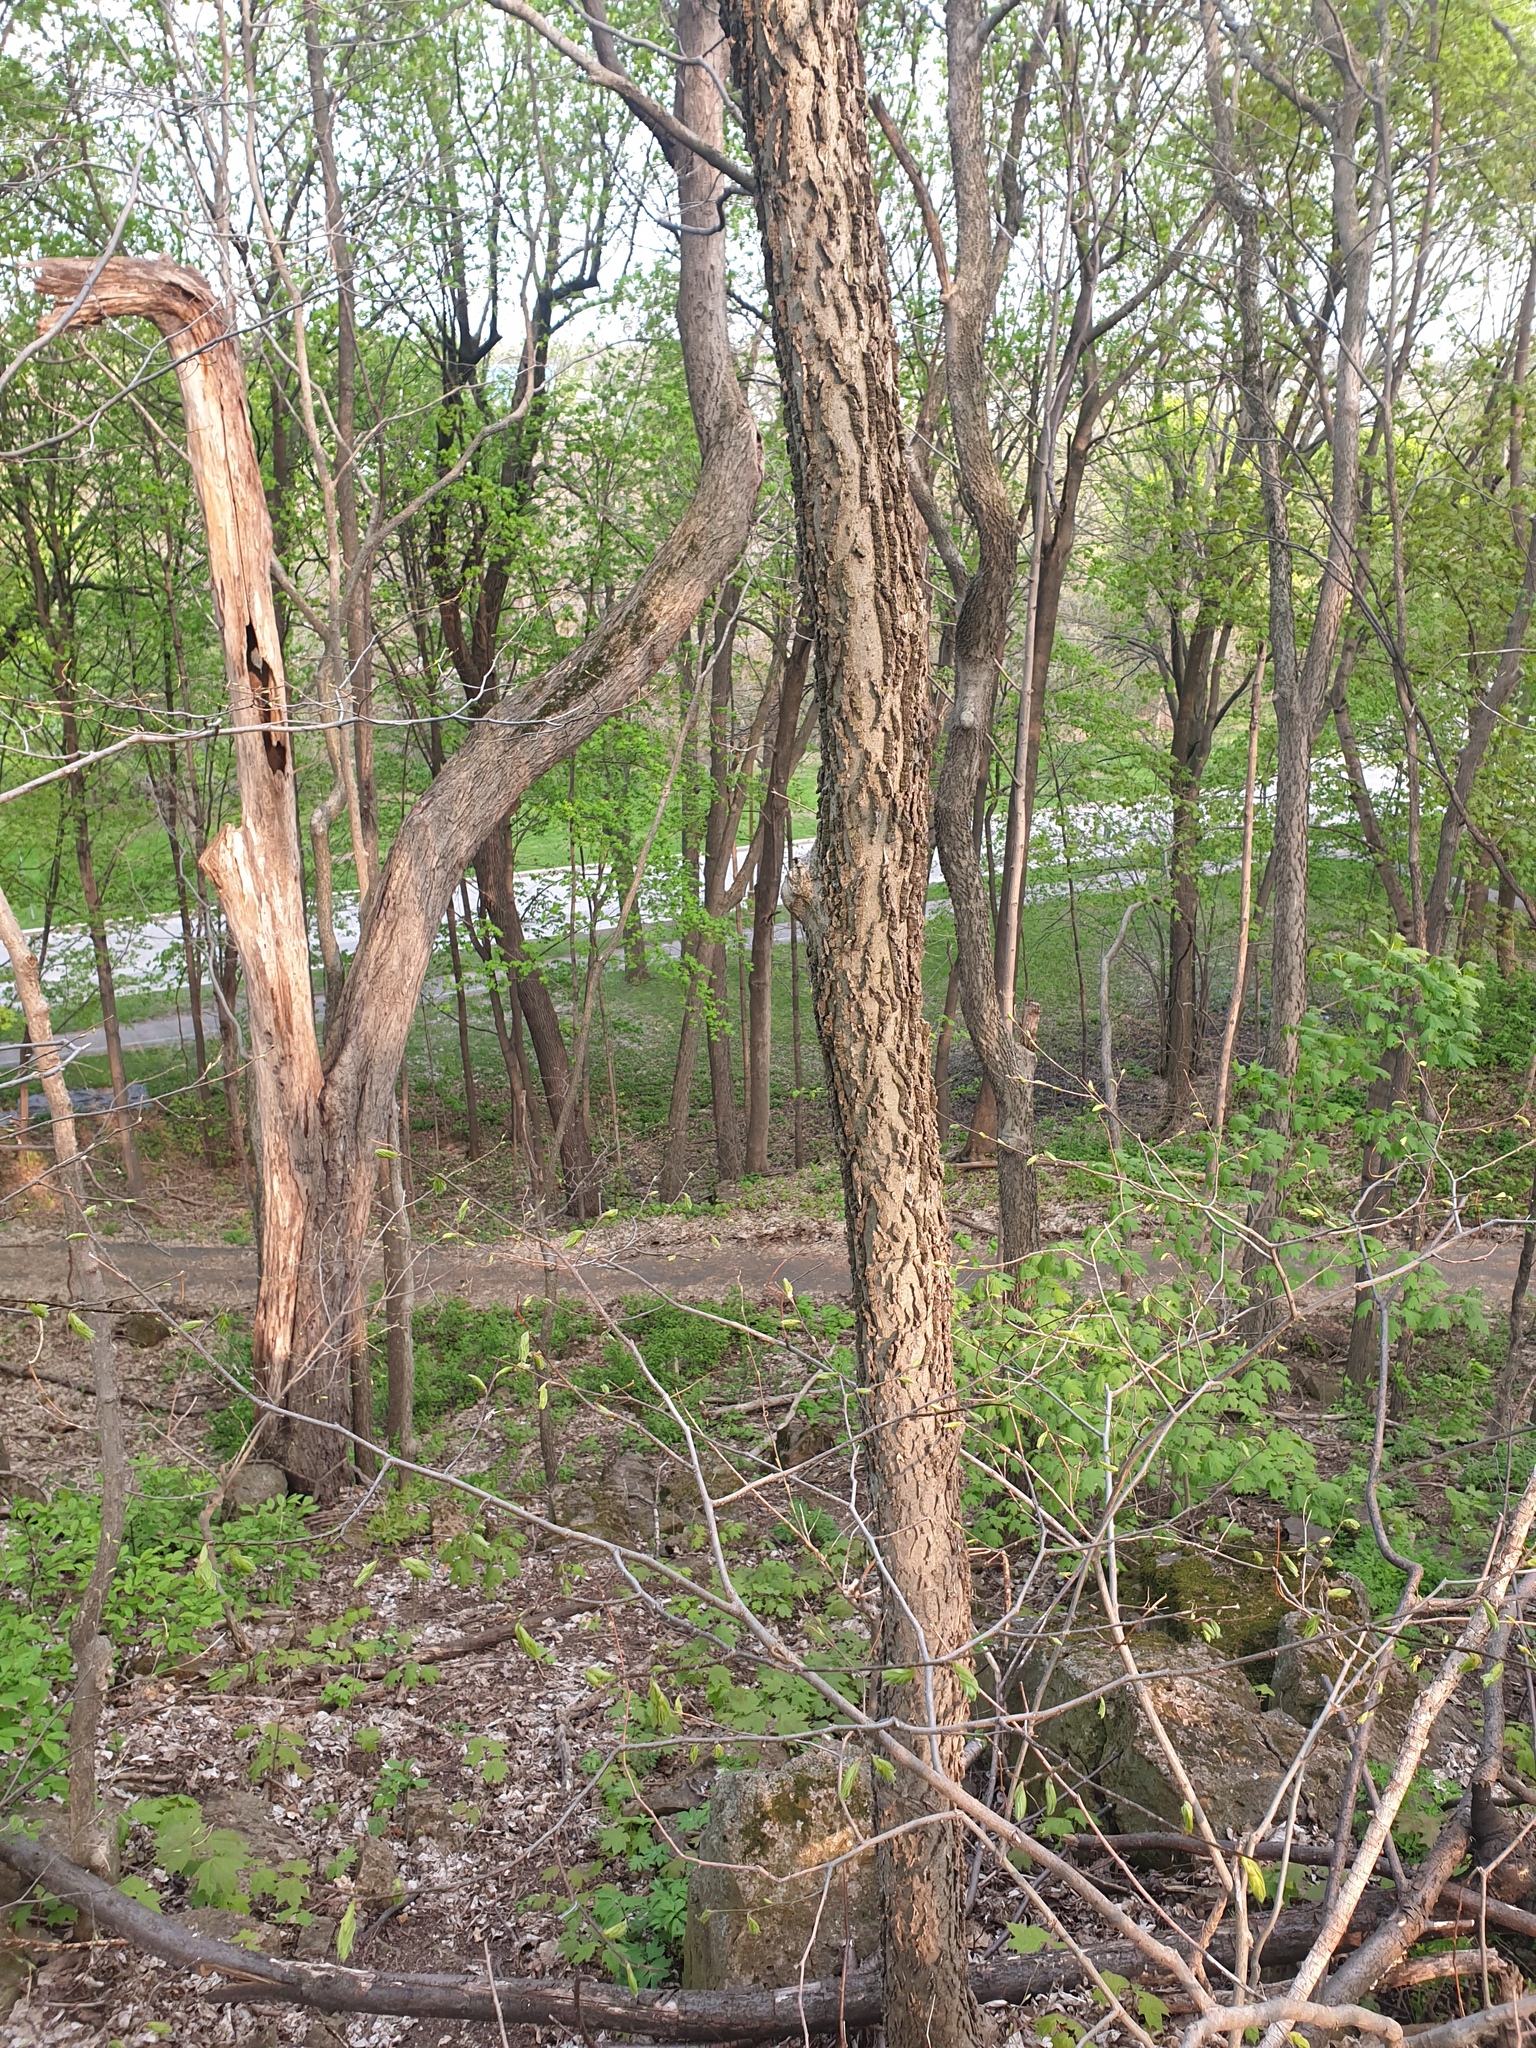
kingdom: Plantae
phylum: Tracheophyta
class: Magnoliopsida
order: Rosales
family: Cannabaceae
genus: Celtis
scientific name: Celtis occidentalis
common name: Common hackberry
